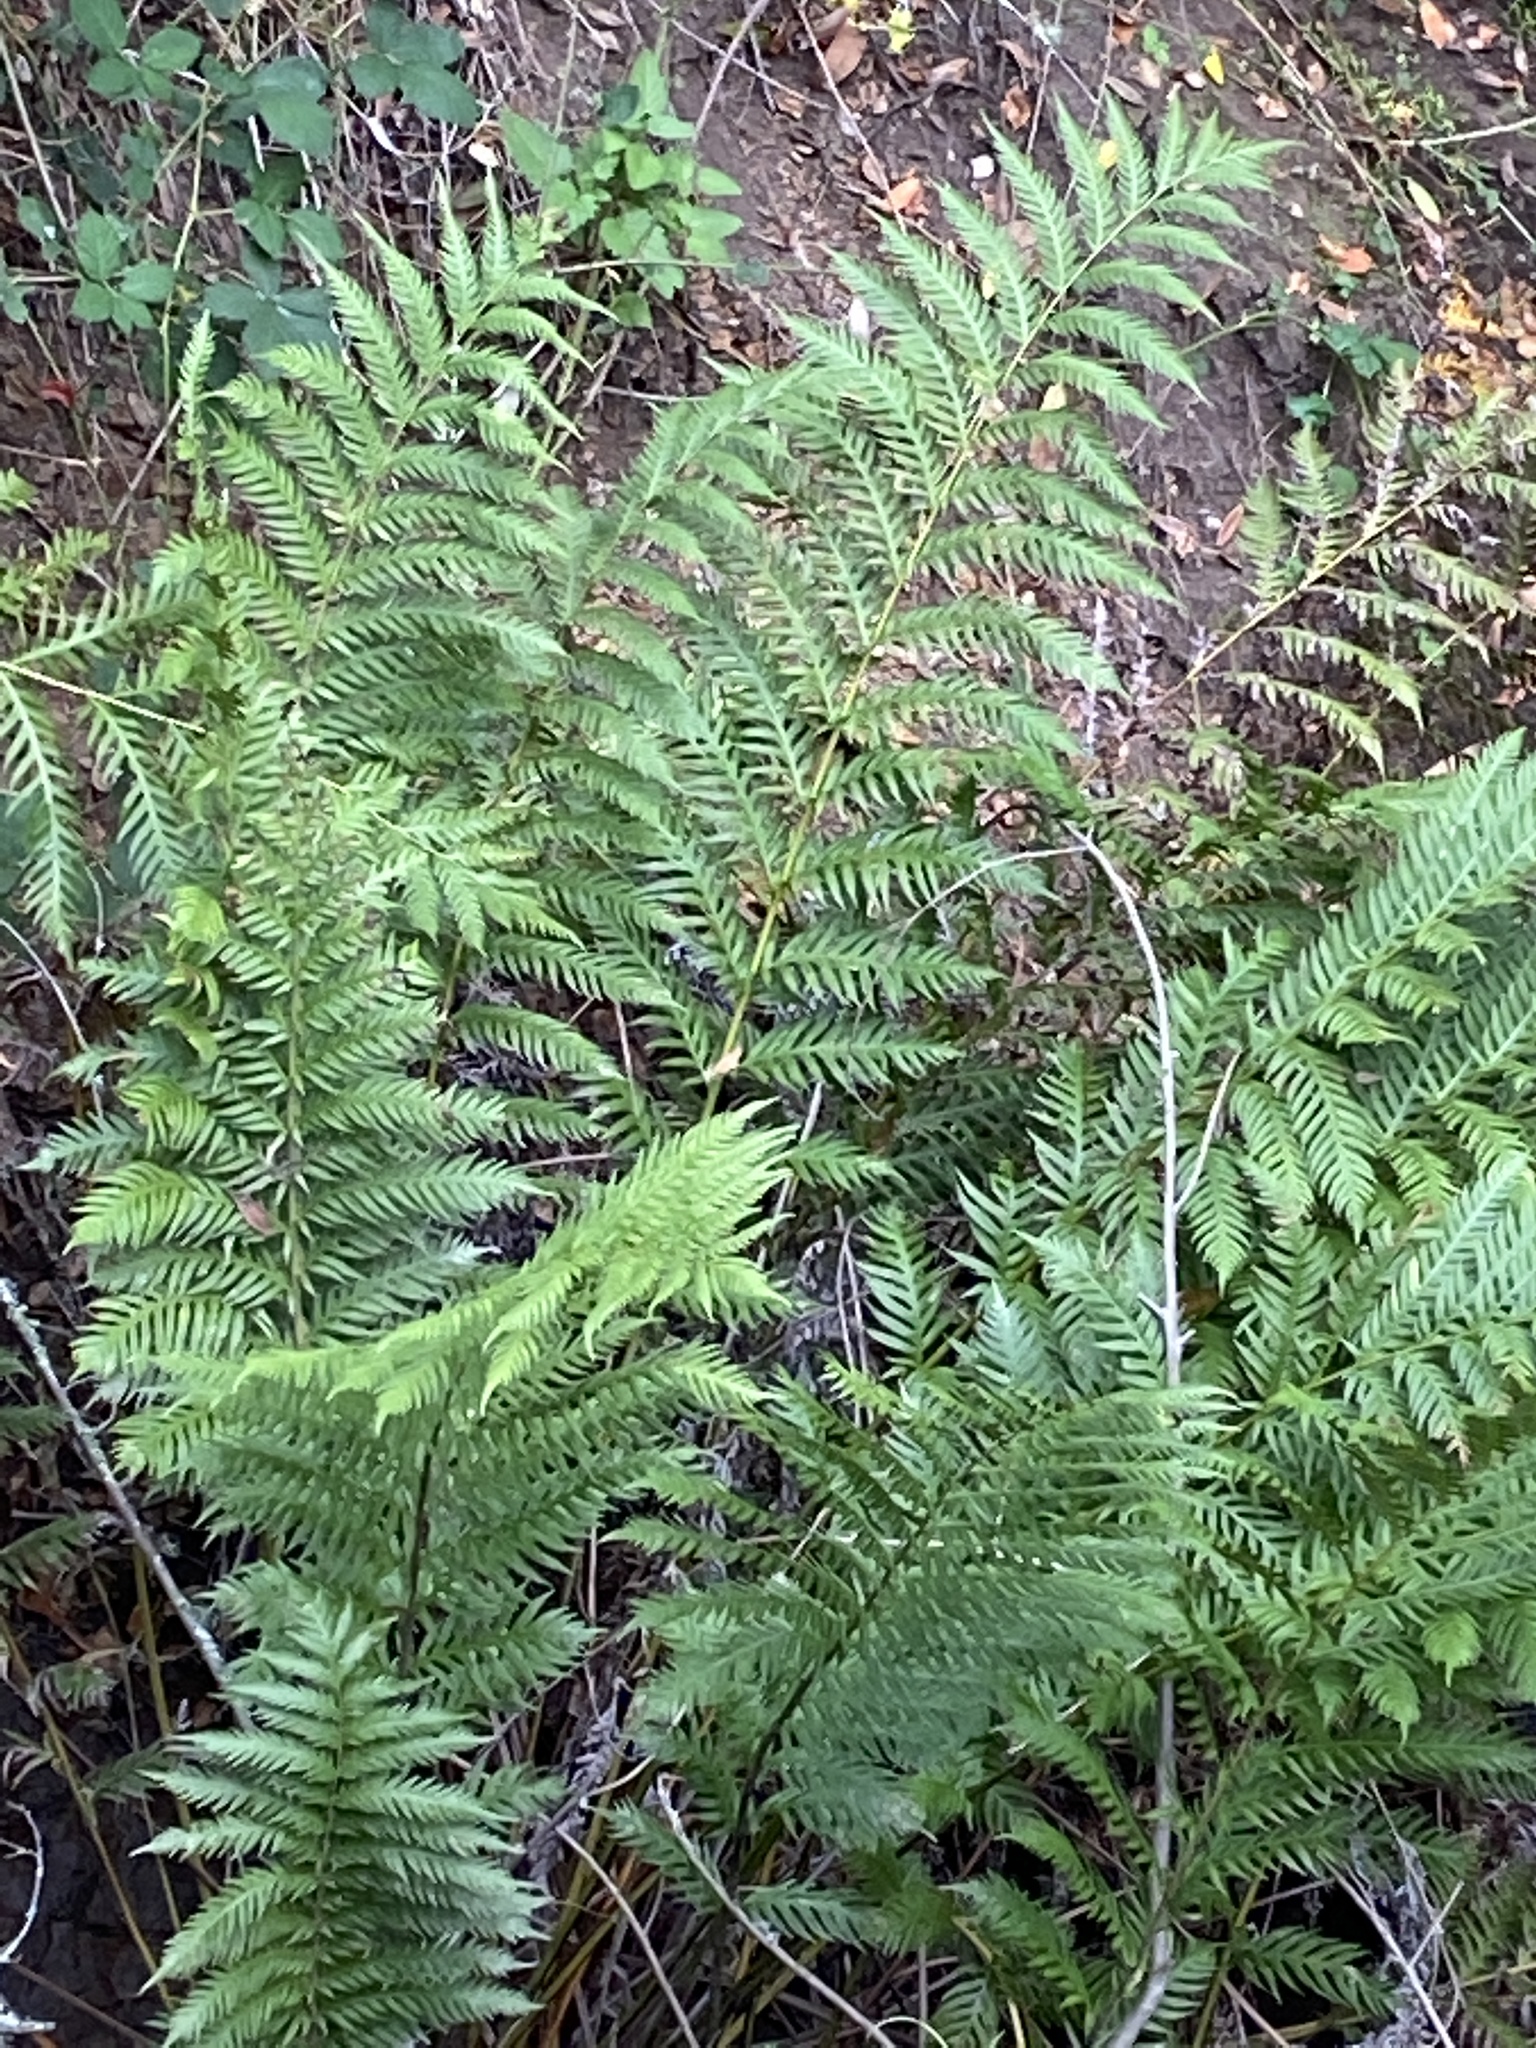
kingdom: Plantae
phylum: Tracheophyta
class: Polypodiopsida
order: Polypodiales
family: Blechnaceae
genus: Woodwardia
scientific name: Woodwardia fimbriata
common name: Giant chain fern
